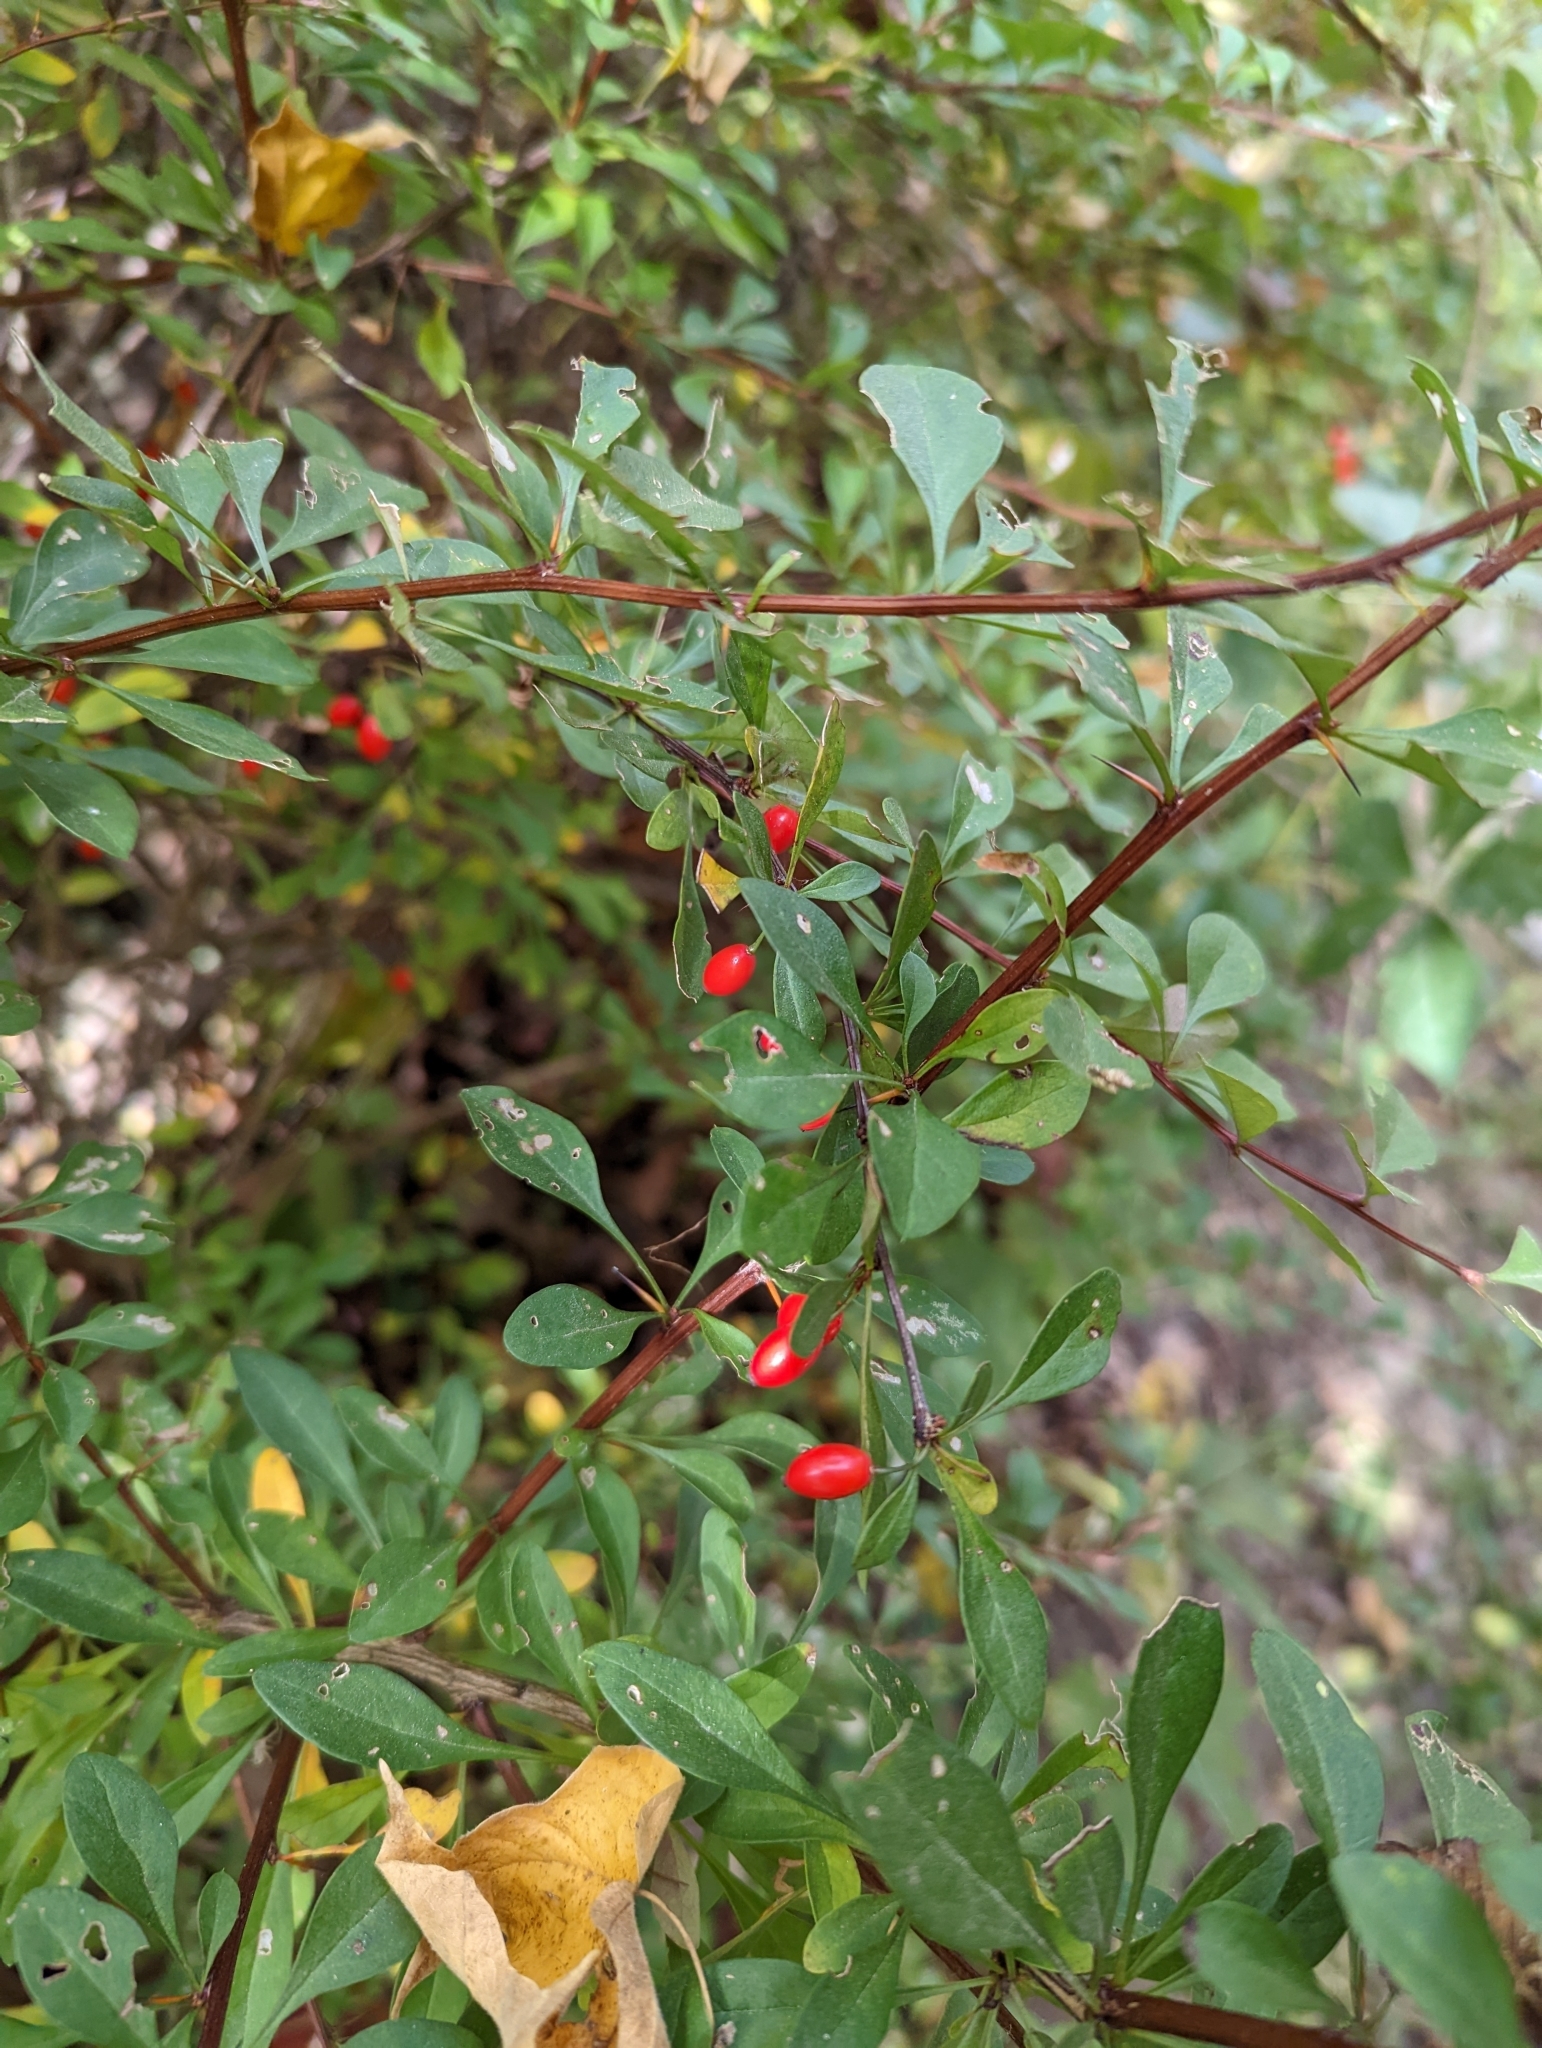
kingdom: Plantae
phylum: Tracheophyta
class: Magnoliopsida
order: Ranunculales
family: Berberidaceae
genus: Berberis
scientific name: Berberis thunbergii
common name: Japanese barberry
